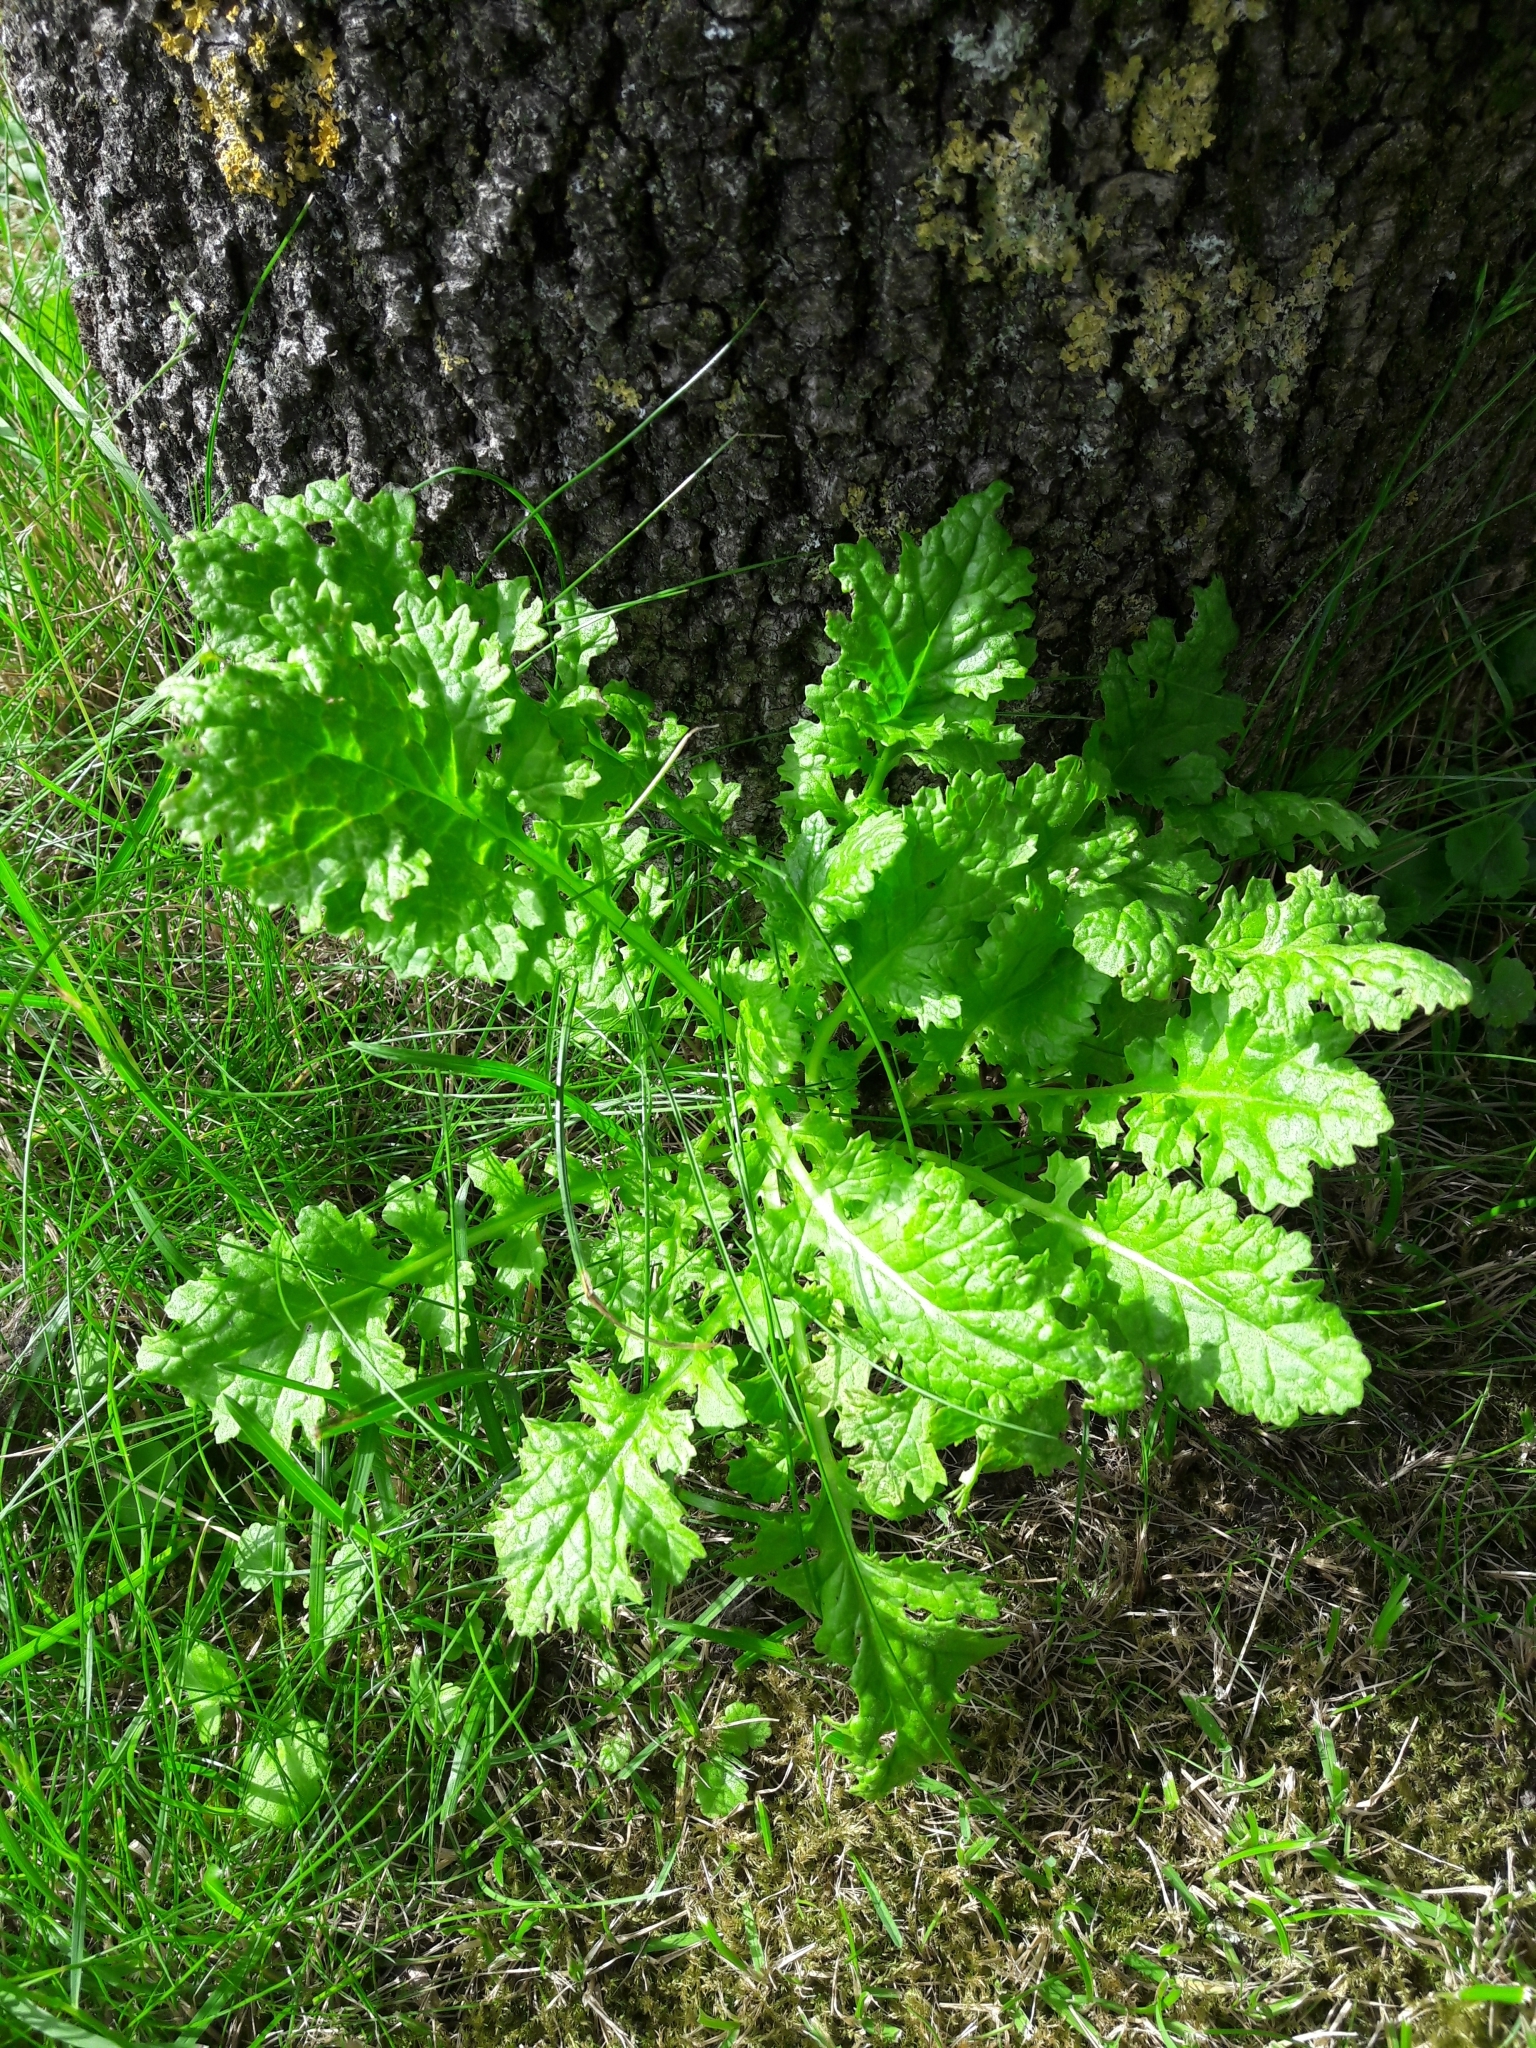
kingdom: Plantae
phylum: Tracheophyta
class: Magnoliopsida
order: Asterales
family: Asteraceae
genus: Jacobaea
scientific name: Jacobaea vulgaris
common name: Stinking willie
